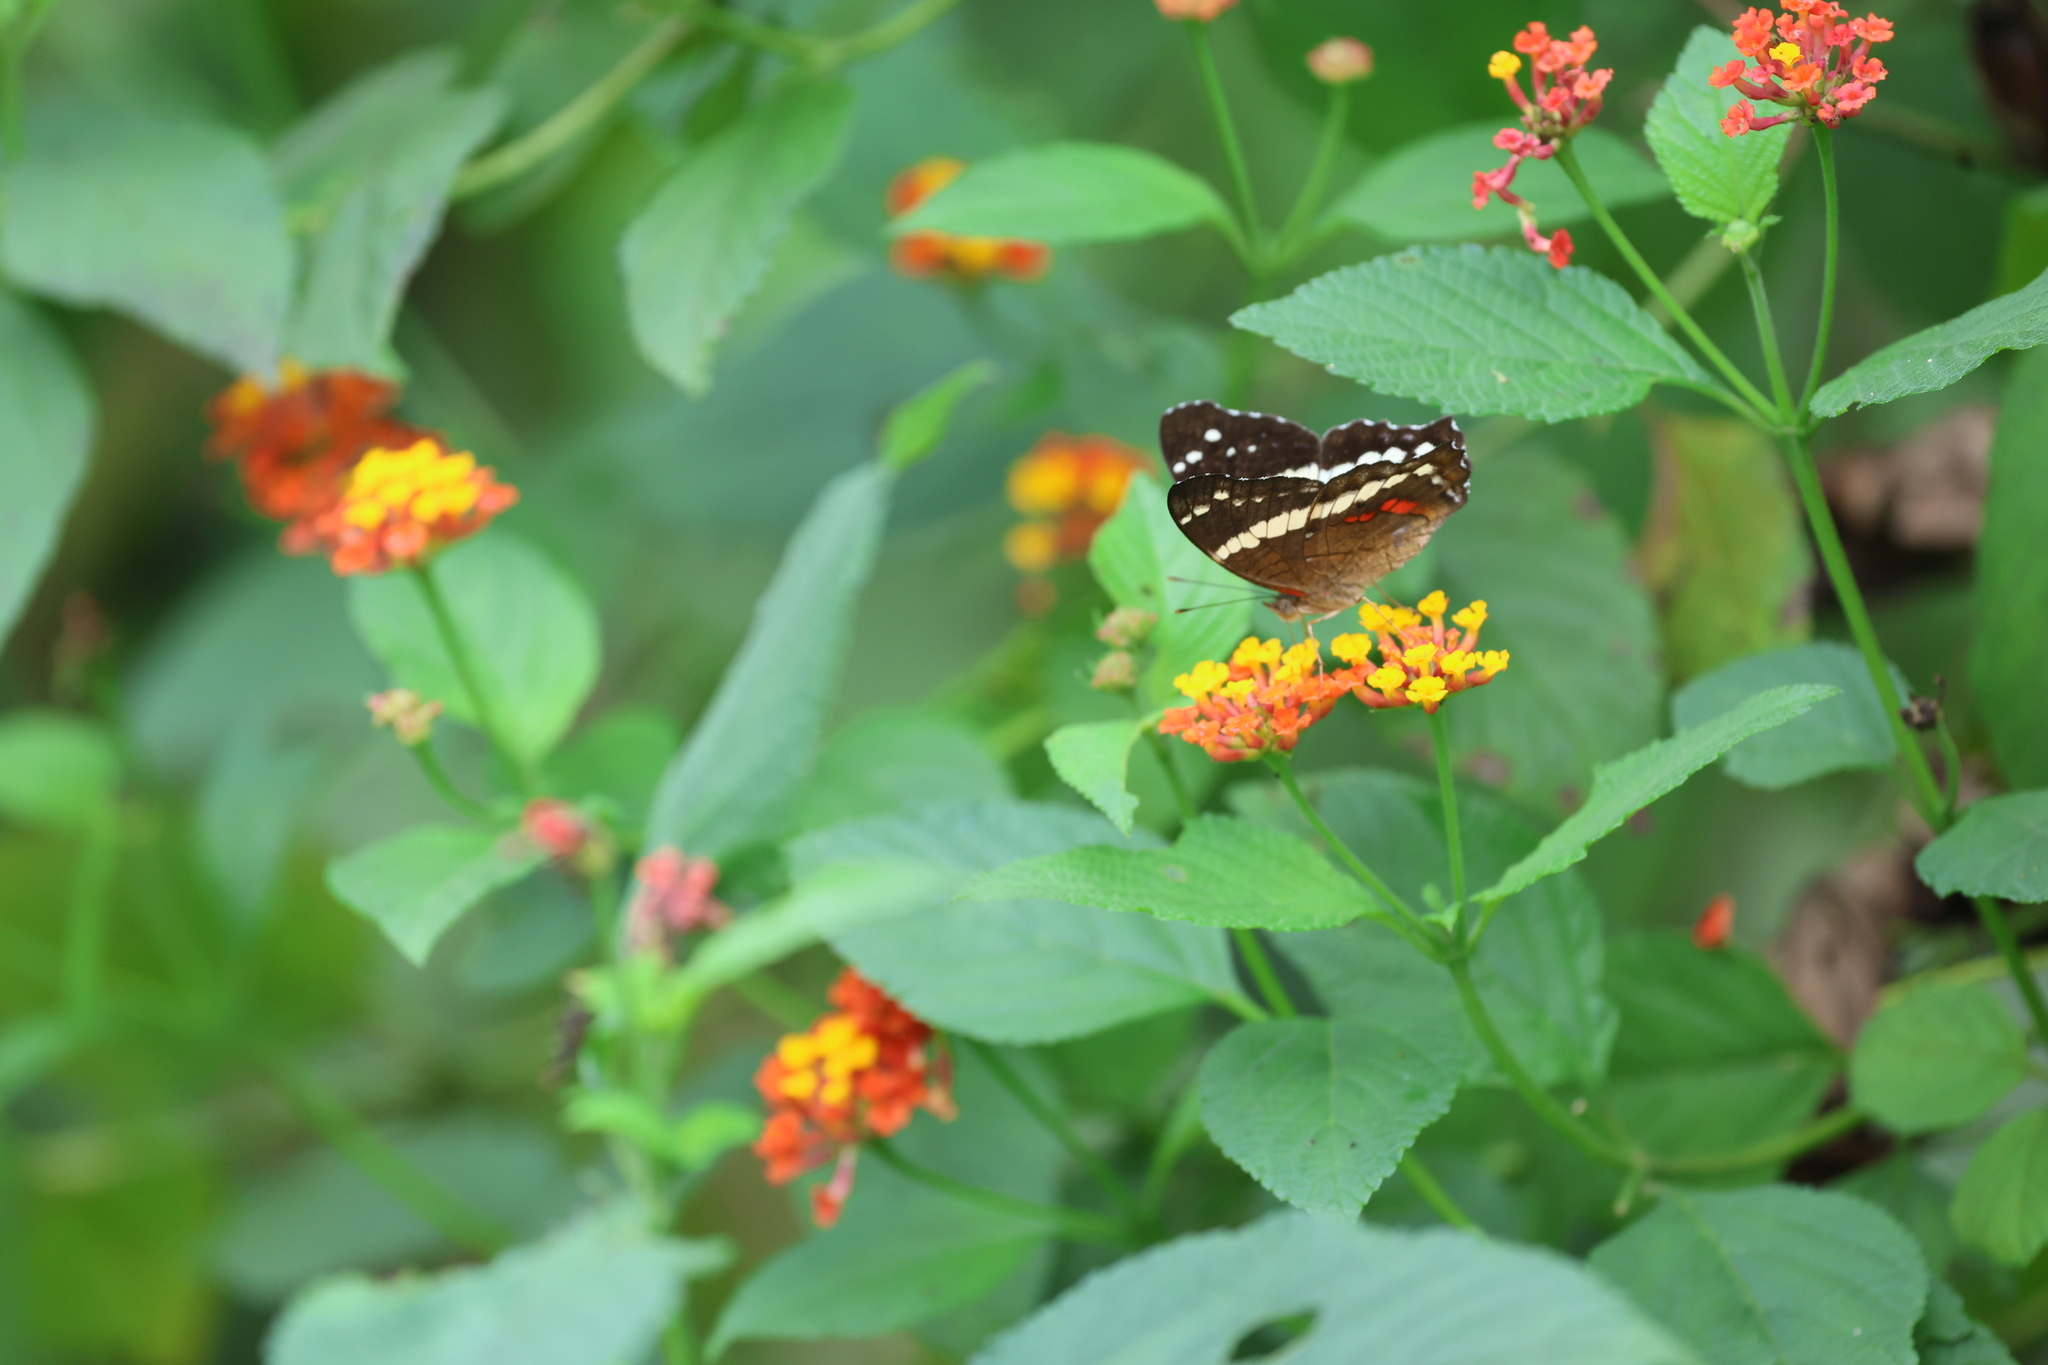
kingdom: Animalia
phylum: Arthropoda
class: Insecta
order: Lepidoptera
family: Nymphalidae
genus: Anartia
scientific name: Anartia fatima
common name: Banded peacock
